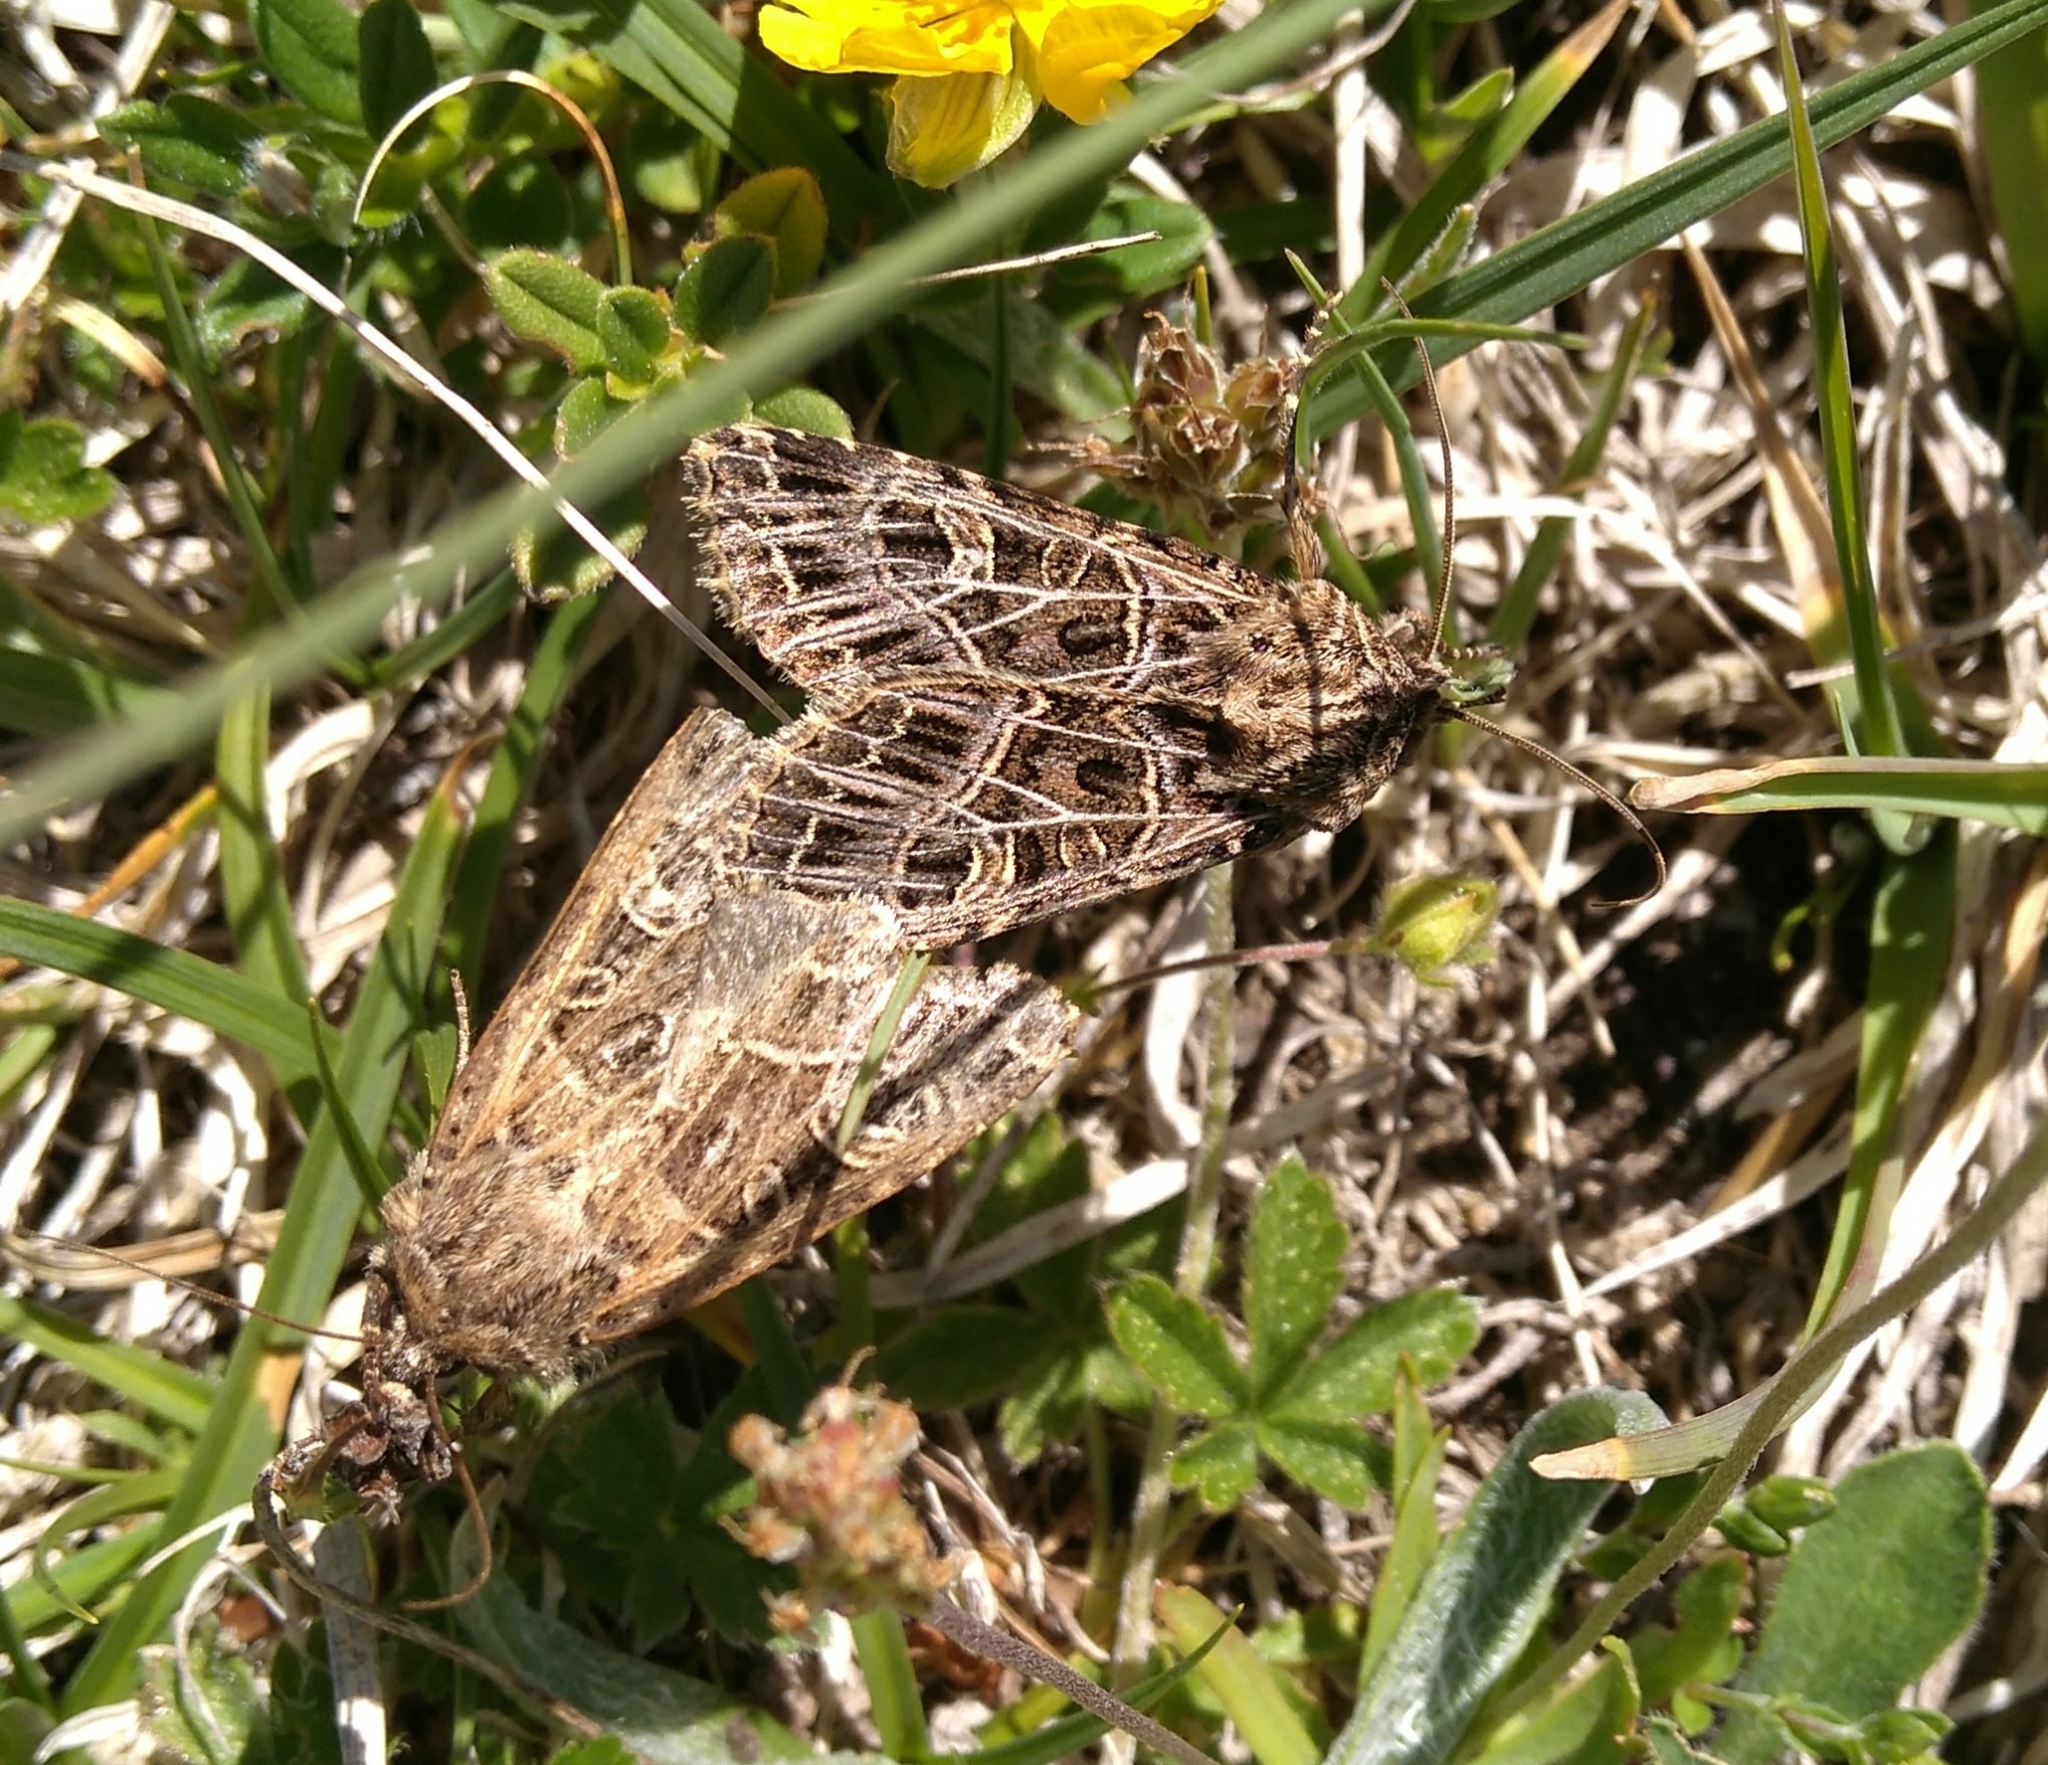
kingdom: Animalia
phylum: Arthropoda
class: Insecta
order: Lepidoptera
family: Noctuidae
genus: Sideridis
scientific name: Sideridis reticulata
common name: Bordered gothic
